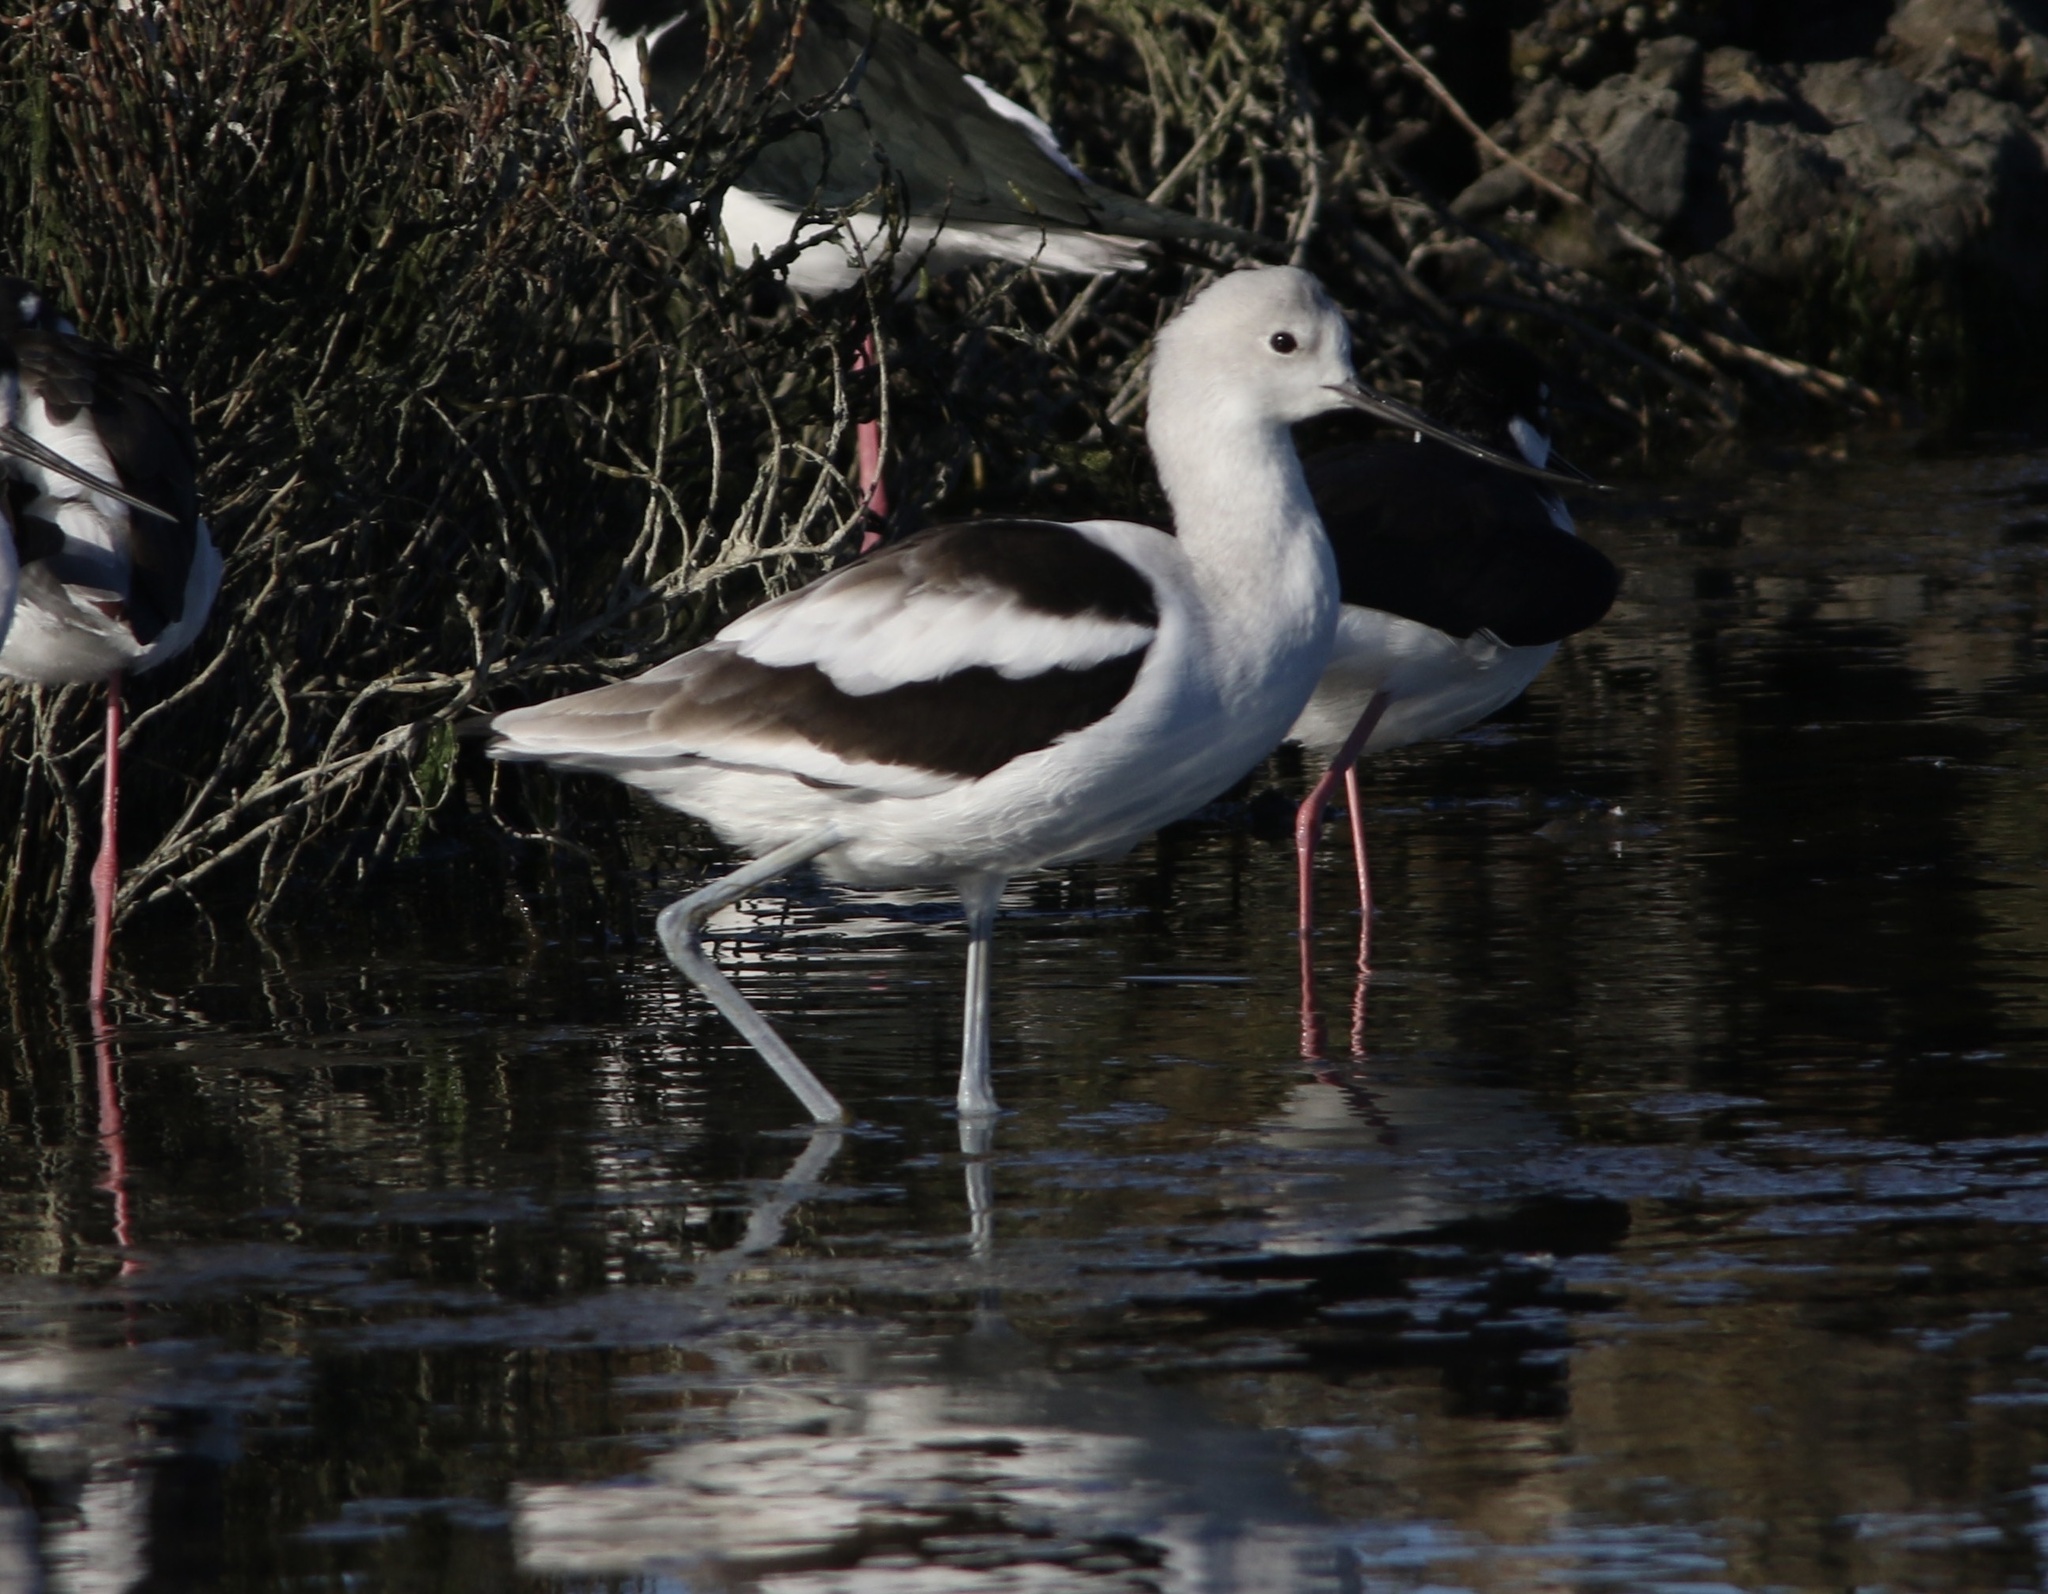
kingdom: Animalia
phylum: Chordata
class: Aves
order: Charadriiformes
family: Recurvirostridae
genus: Recurvirostra
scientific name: Recurvirostra americana
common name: American avocet
